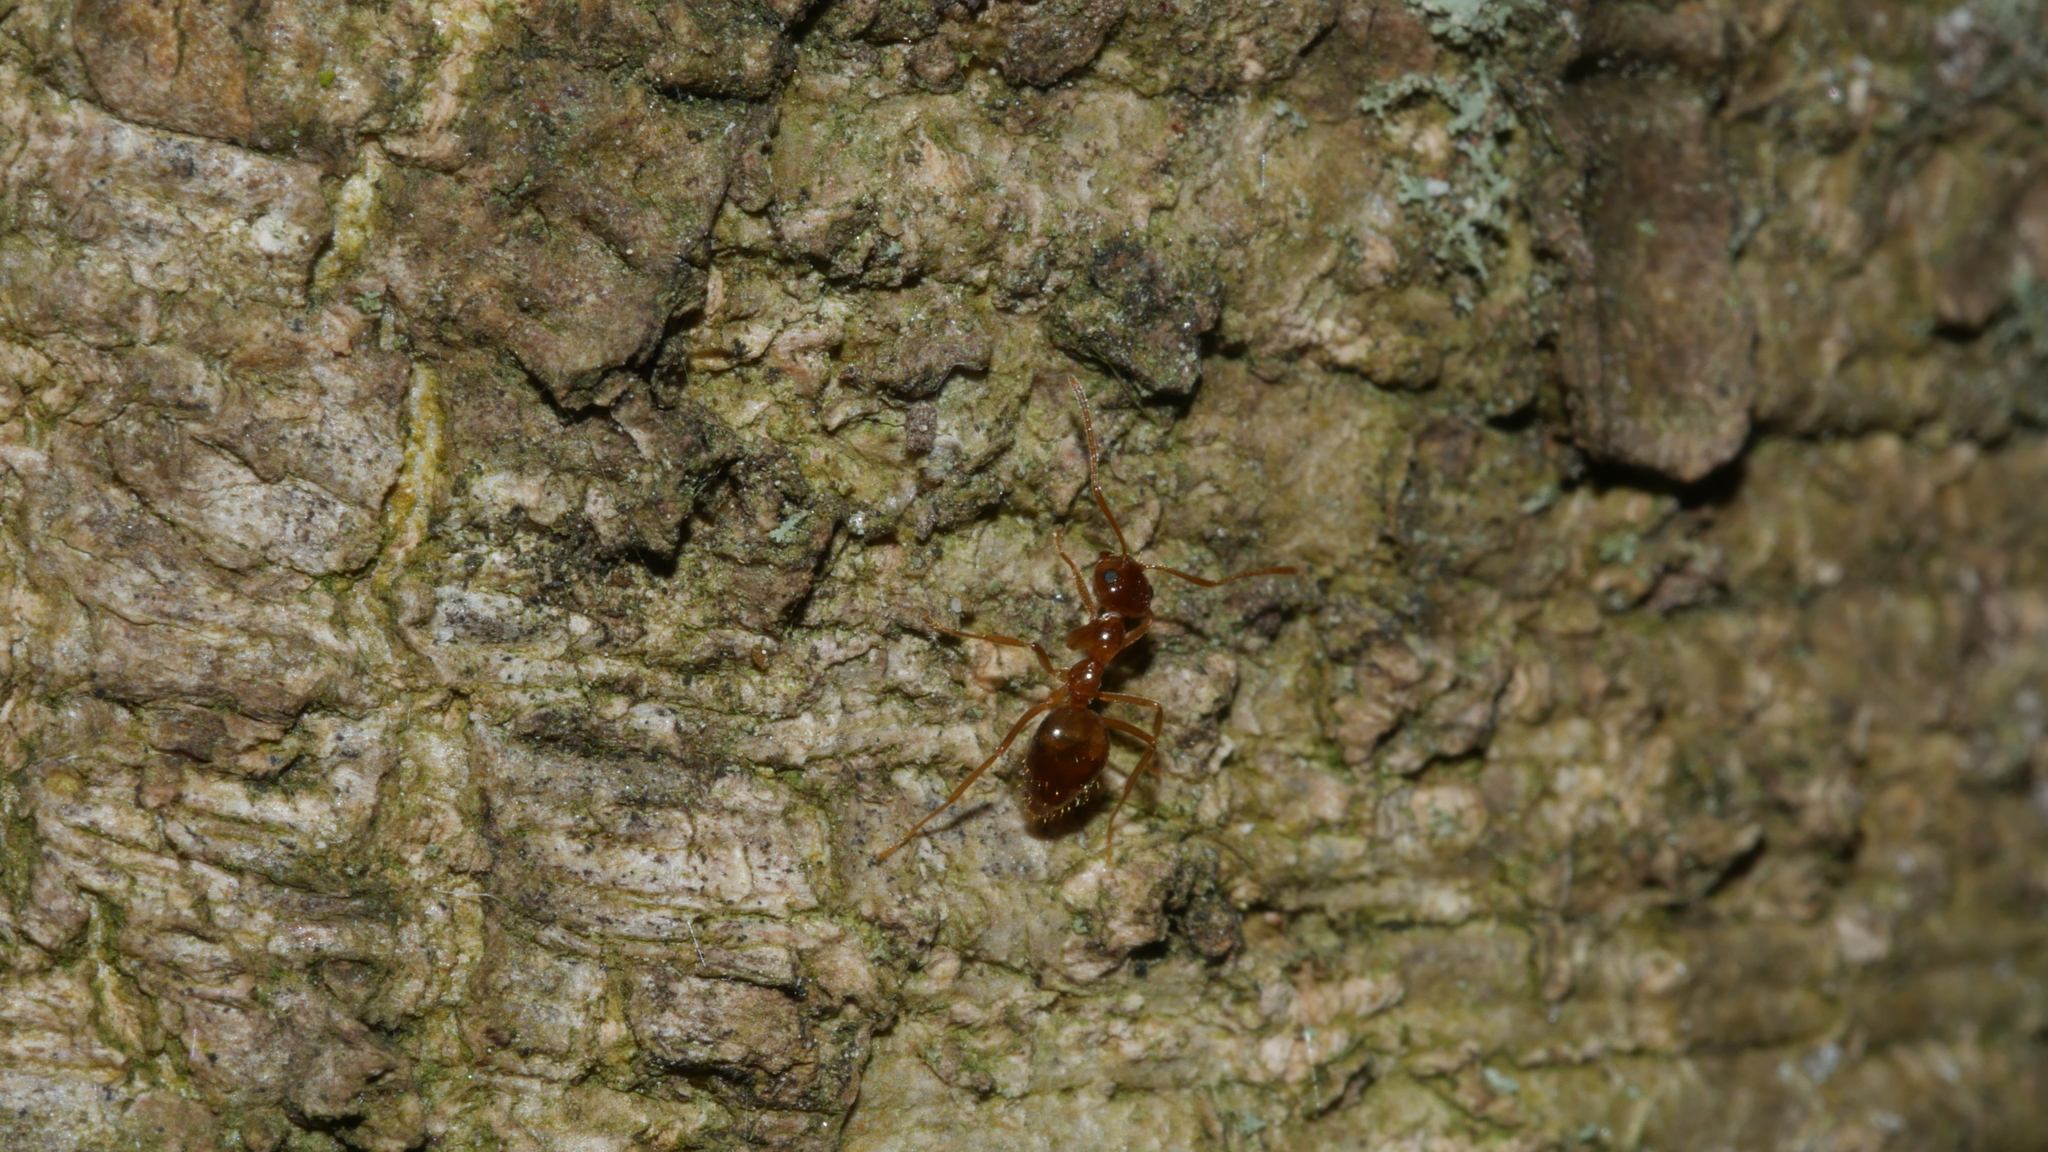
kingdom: Animalia
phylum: Arthropoda
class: Insecta
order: Hymenoptera
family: Formicidae
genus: Prenolepis
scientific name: Prenolepis imparis
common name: Small honey ant
